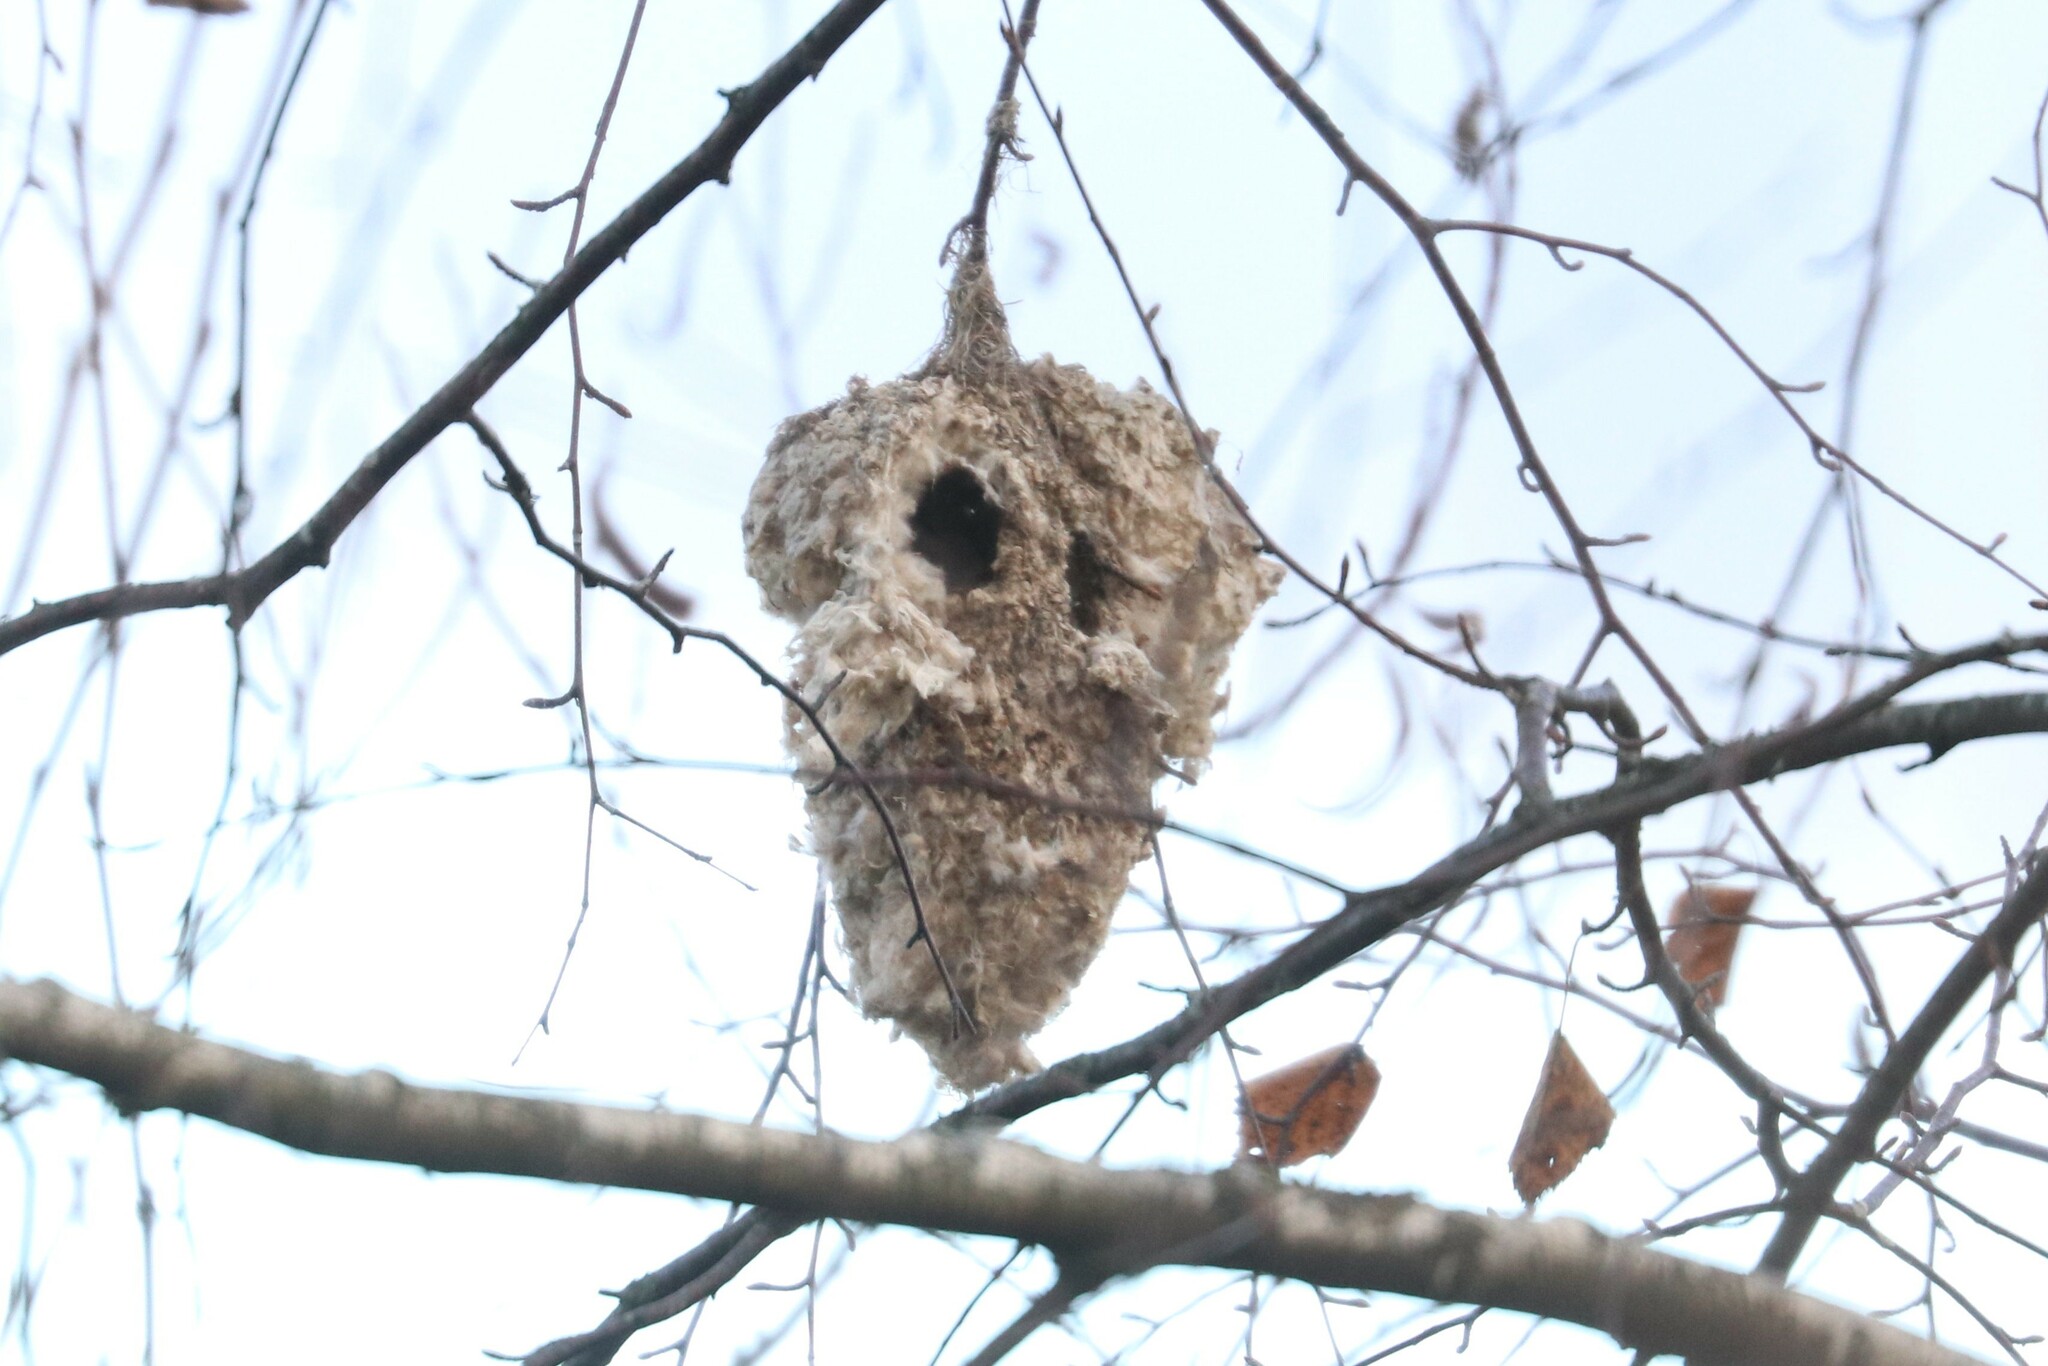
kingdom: Animalia
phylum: Chordata
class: Aves
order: Passeriformes
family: Remizidae
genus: Remiz
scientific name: Remiz pendulinus
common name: Eurasian penduline tit
